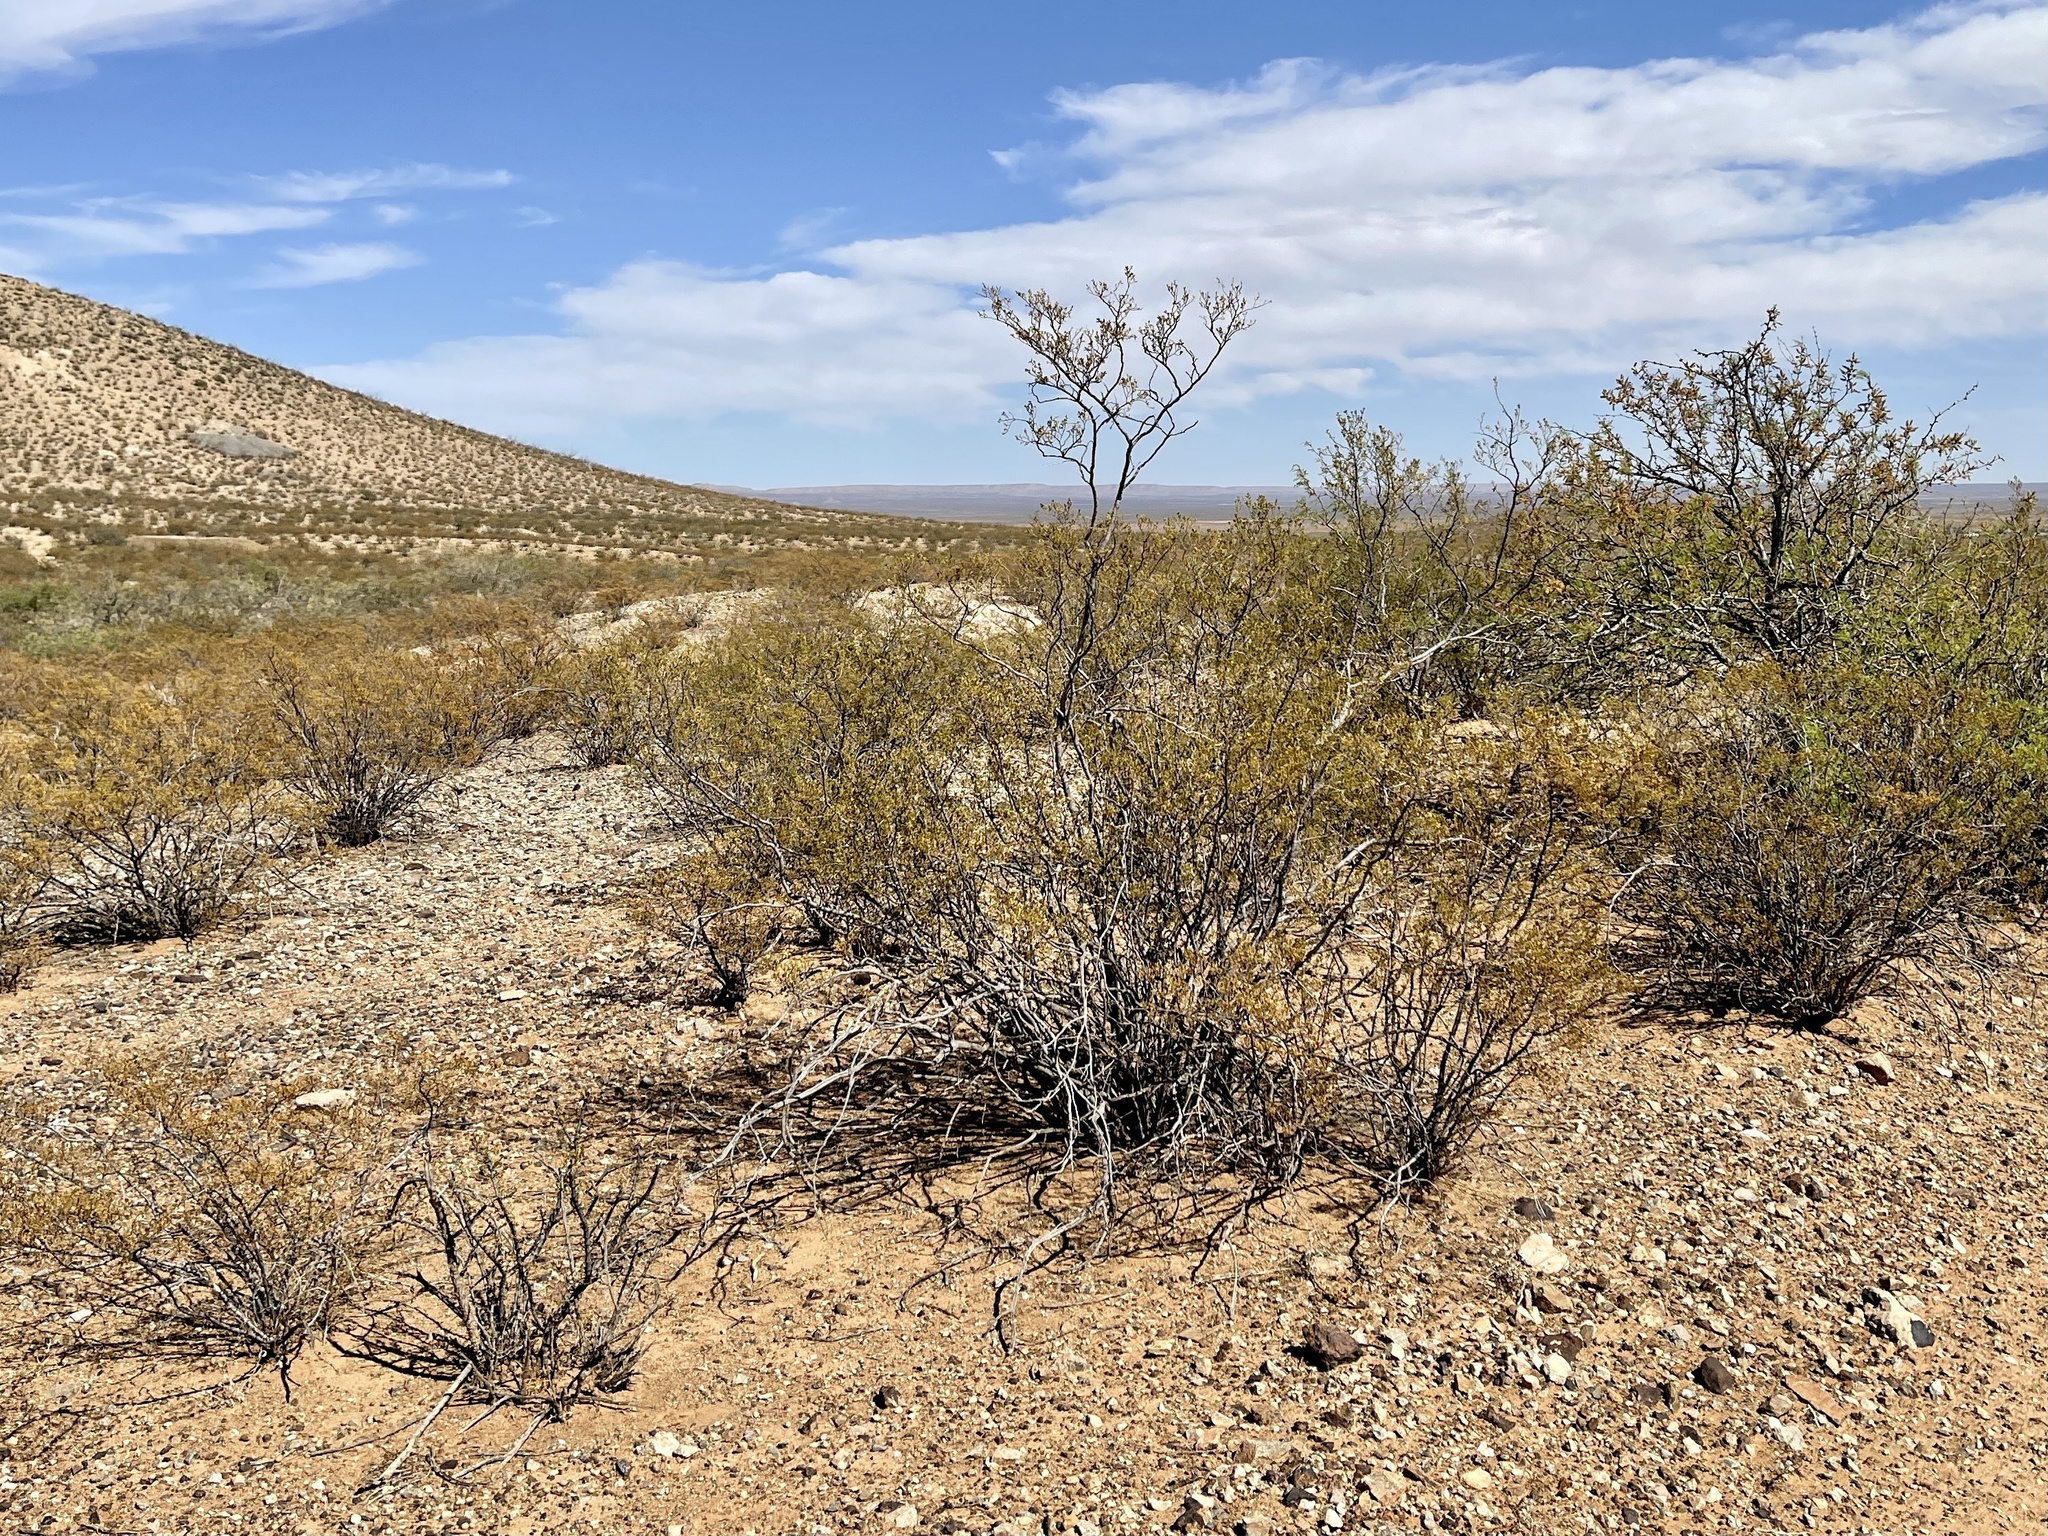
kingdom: Plantae
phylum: Tracheophyta
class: Magnoliopsida
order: Zygophyllales
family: Zygophyllaceae
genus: Larrea
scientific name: Larrea tridentata
